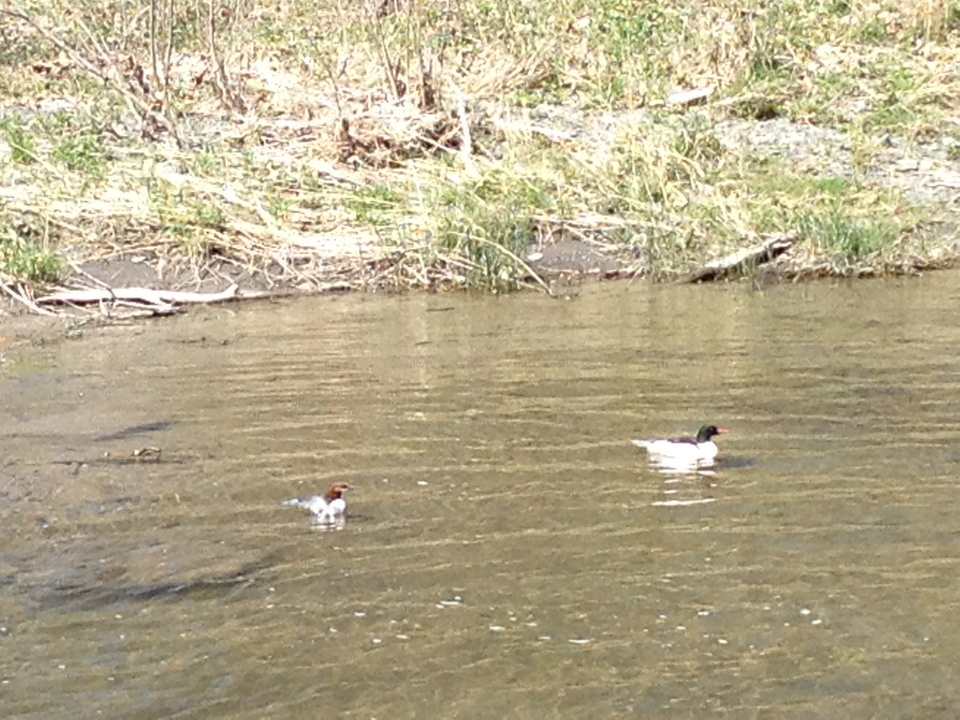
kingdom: Animalia
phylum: Chordata
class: Aves
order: Anseriformes
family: Anatidae
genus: Mergus
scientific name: Mergus merganser
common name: Common merganser
